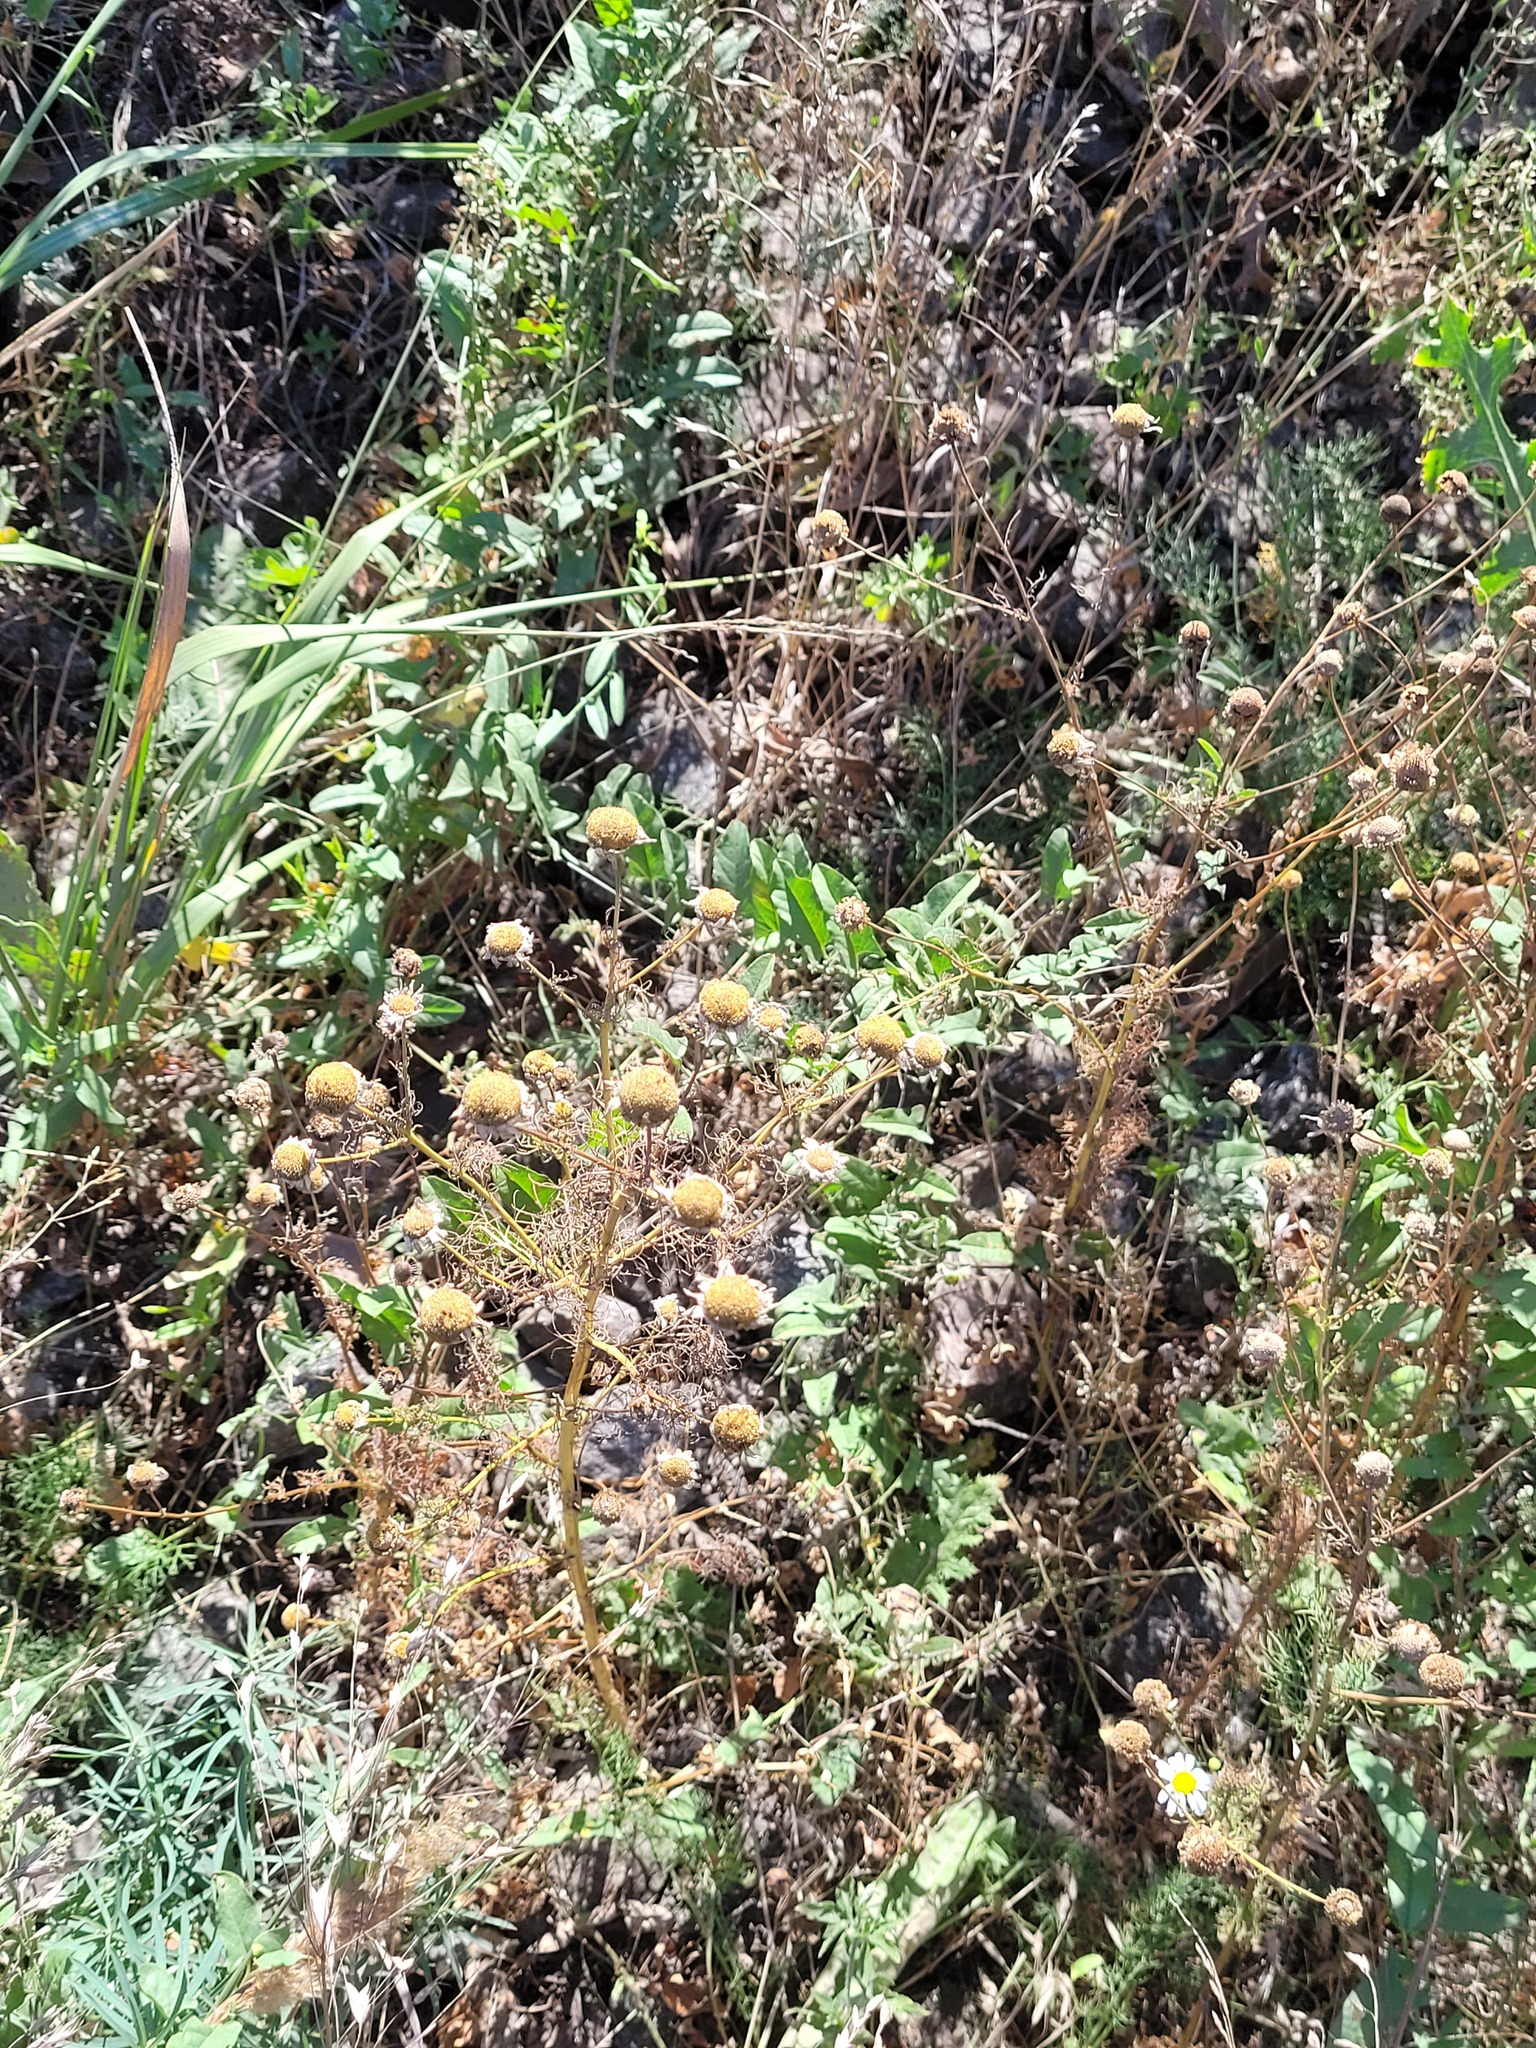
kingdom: Plantae
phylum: Tracheophyta
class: Magnoliopsida
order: Asterales
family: Asteraceae
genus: Tripleurospermum
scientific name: Tripleurospermum inodorum
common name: Scentless mayweed
